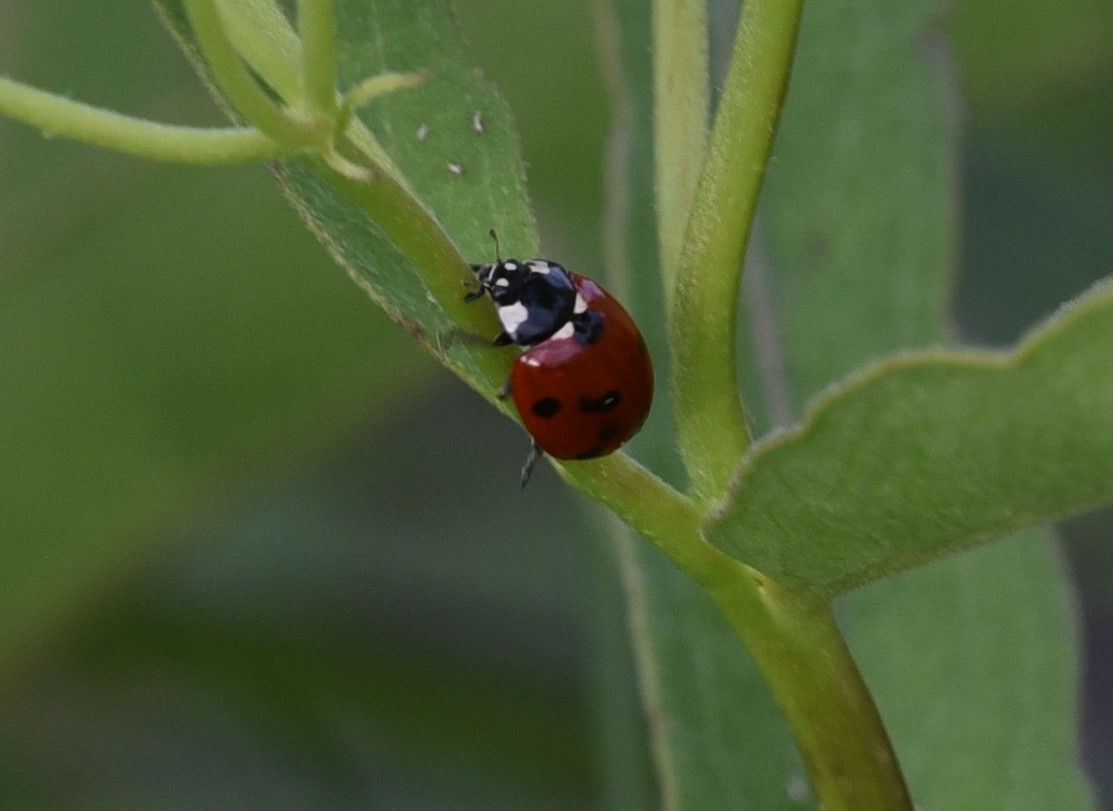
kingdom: Animalia
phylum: Arthropoda
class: Insecta
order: Coleoptera
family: Coccinellidae
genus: Coccinella
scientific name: Coccinella septempunctata
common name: Sevenspotted lady beetle
